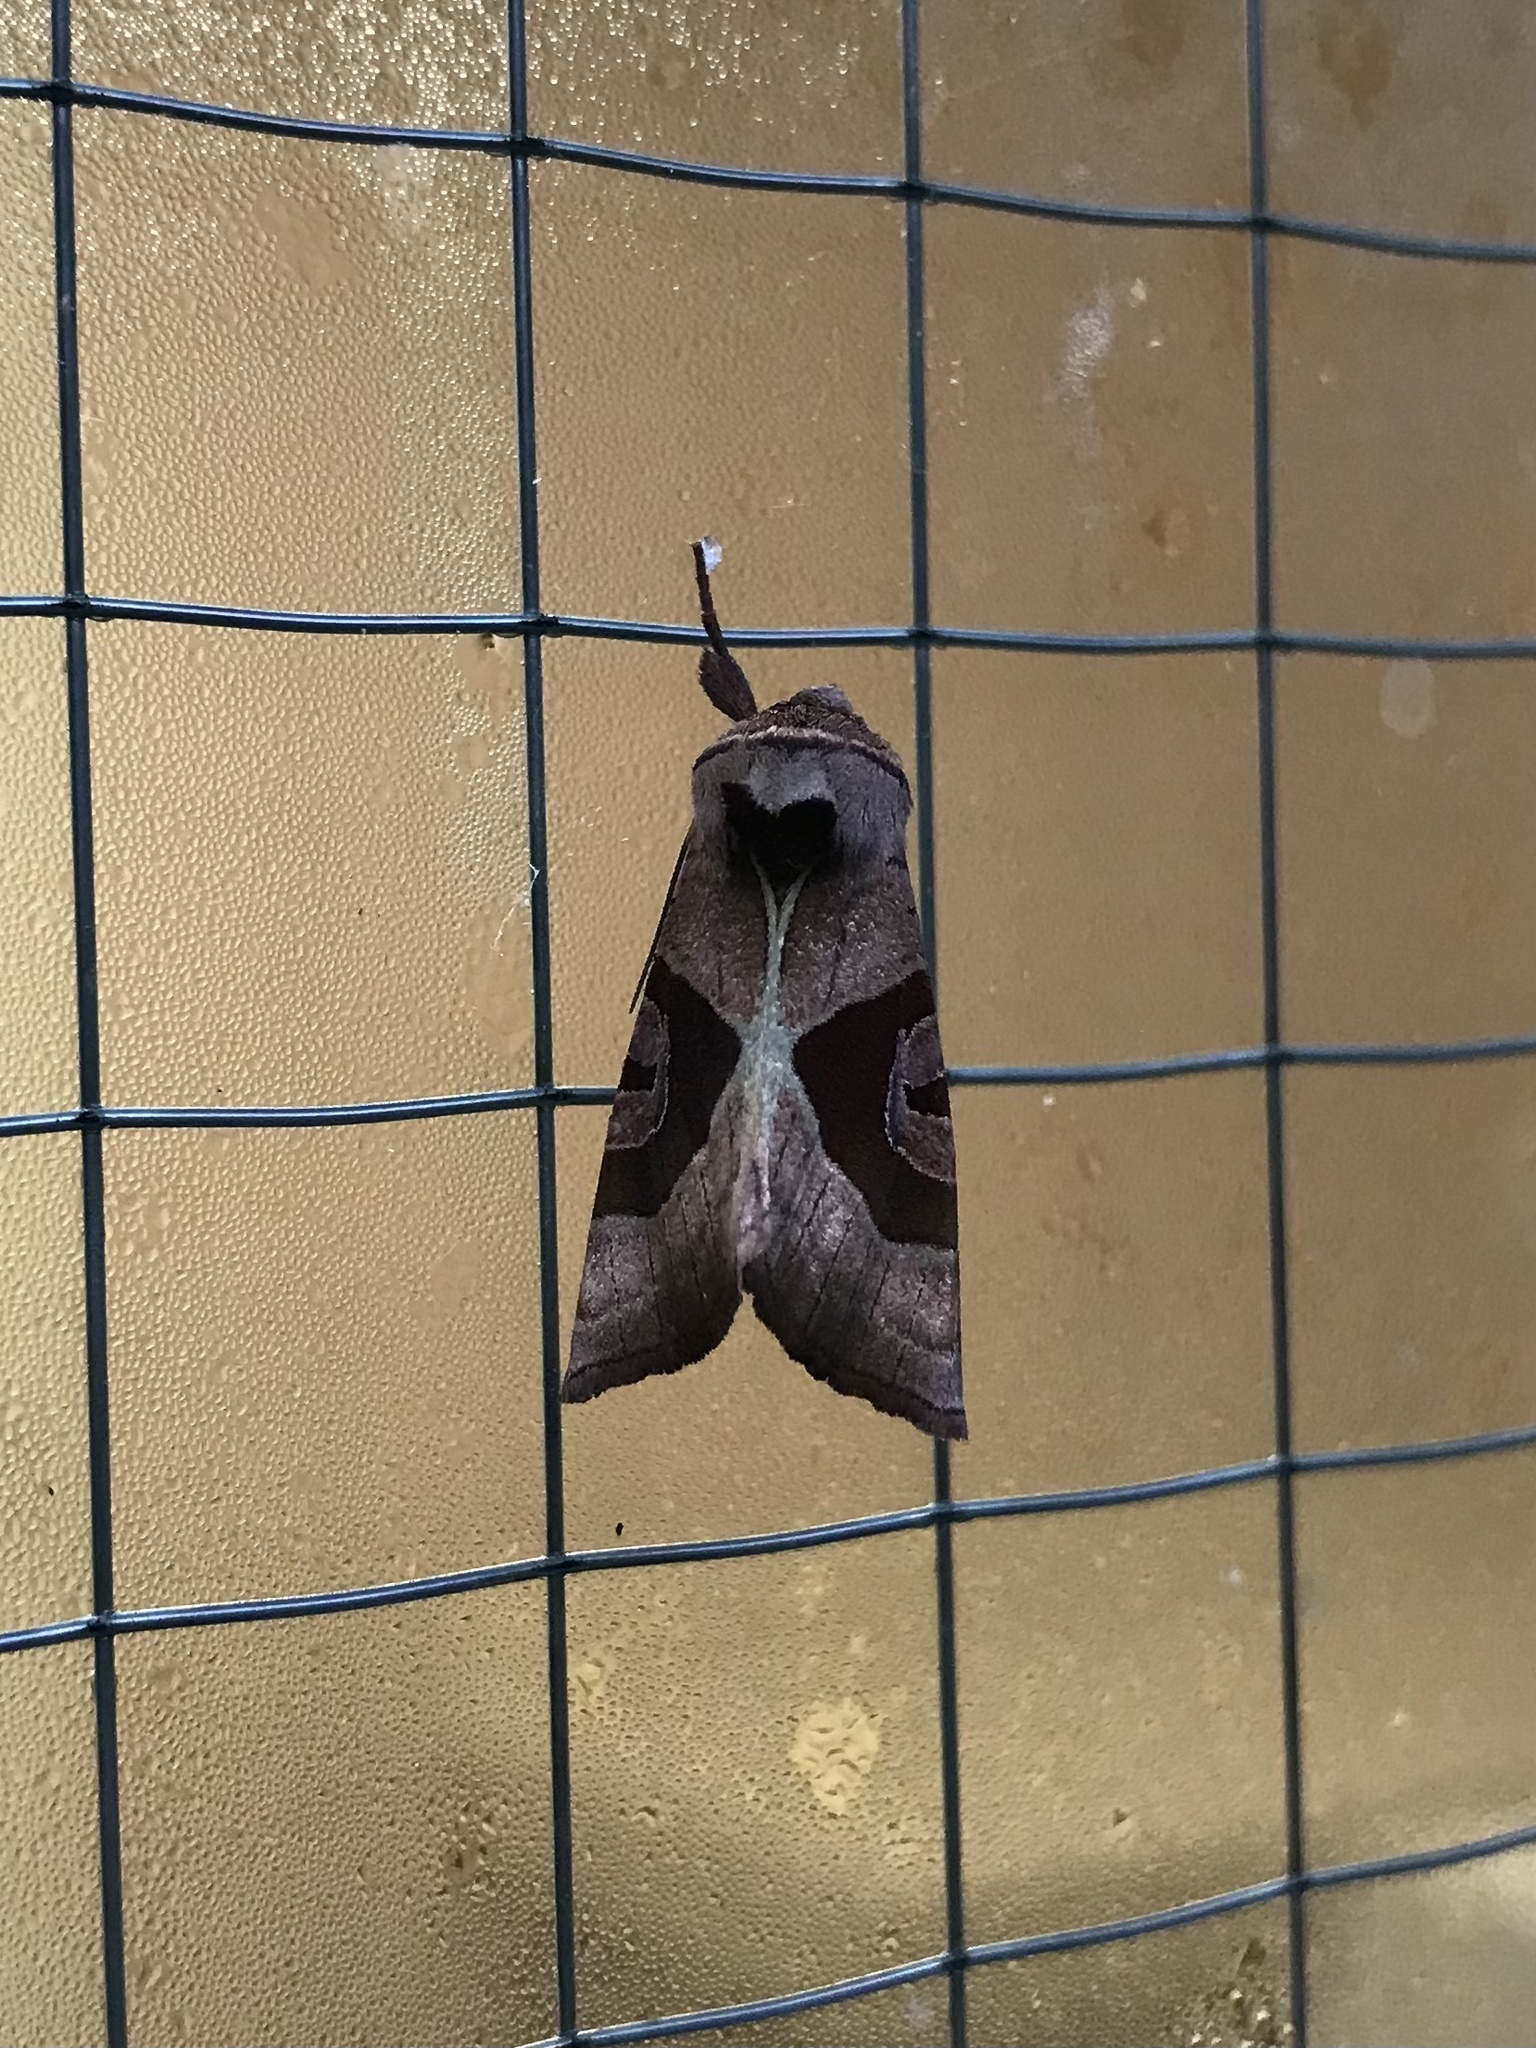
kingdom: Animalia
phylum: Arthropoda
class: Insecta
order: Lepidoptera
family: Noctuidae
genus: Conservula
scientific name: Conservula anodonta
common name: Sharp angle shades
